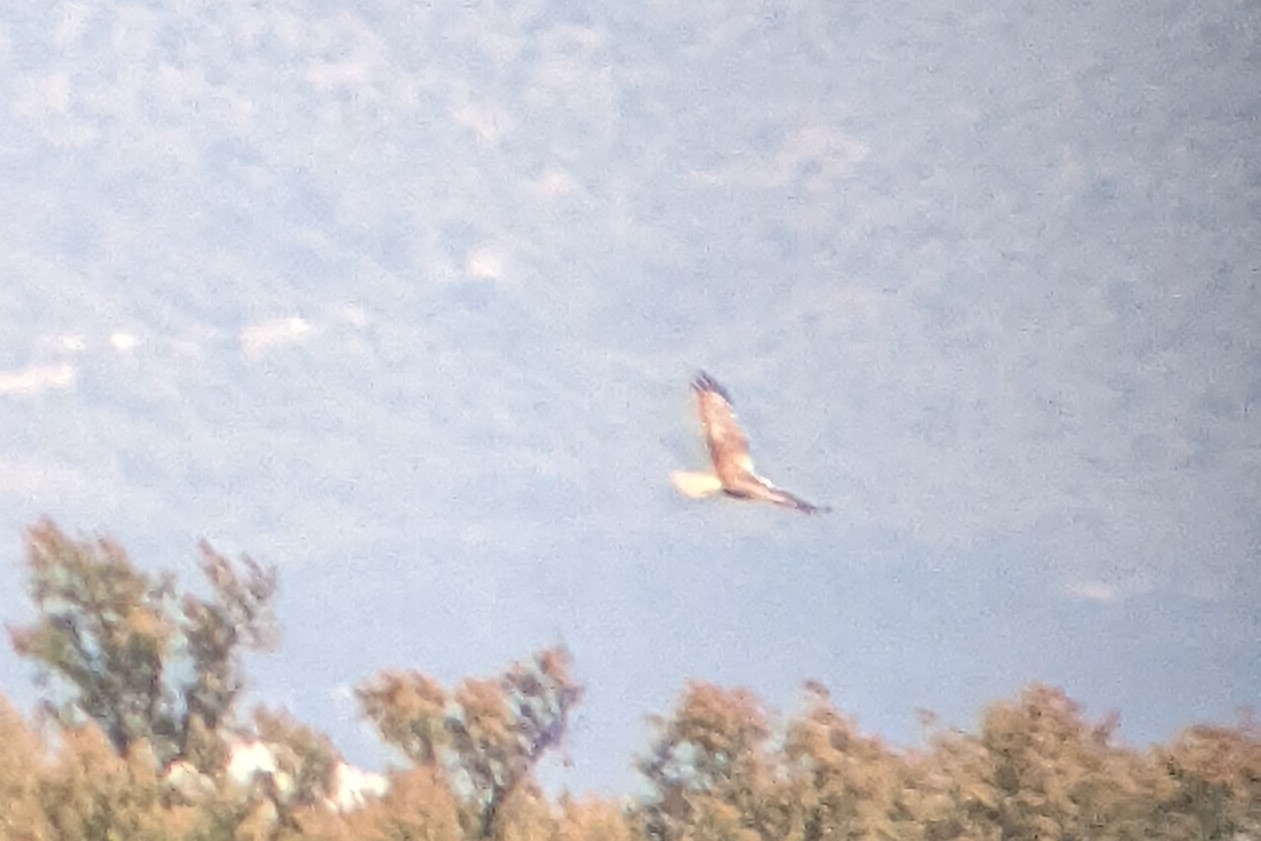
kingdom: Animalia
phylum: Chordata
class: Aves
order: Accipitriformes
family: Accipitridae
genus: Circus
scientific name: Circus aeruginosus
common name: Western marsh harrier
